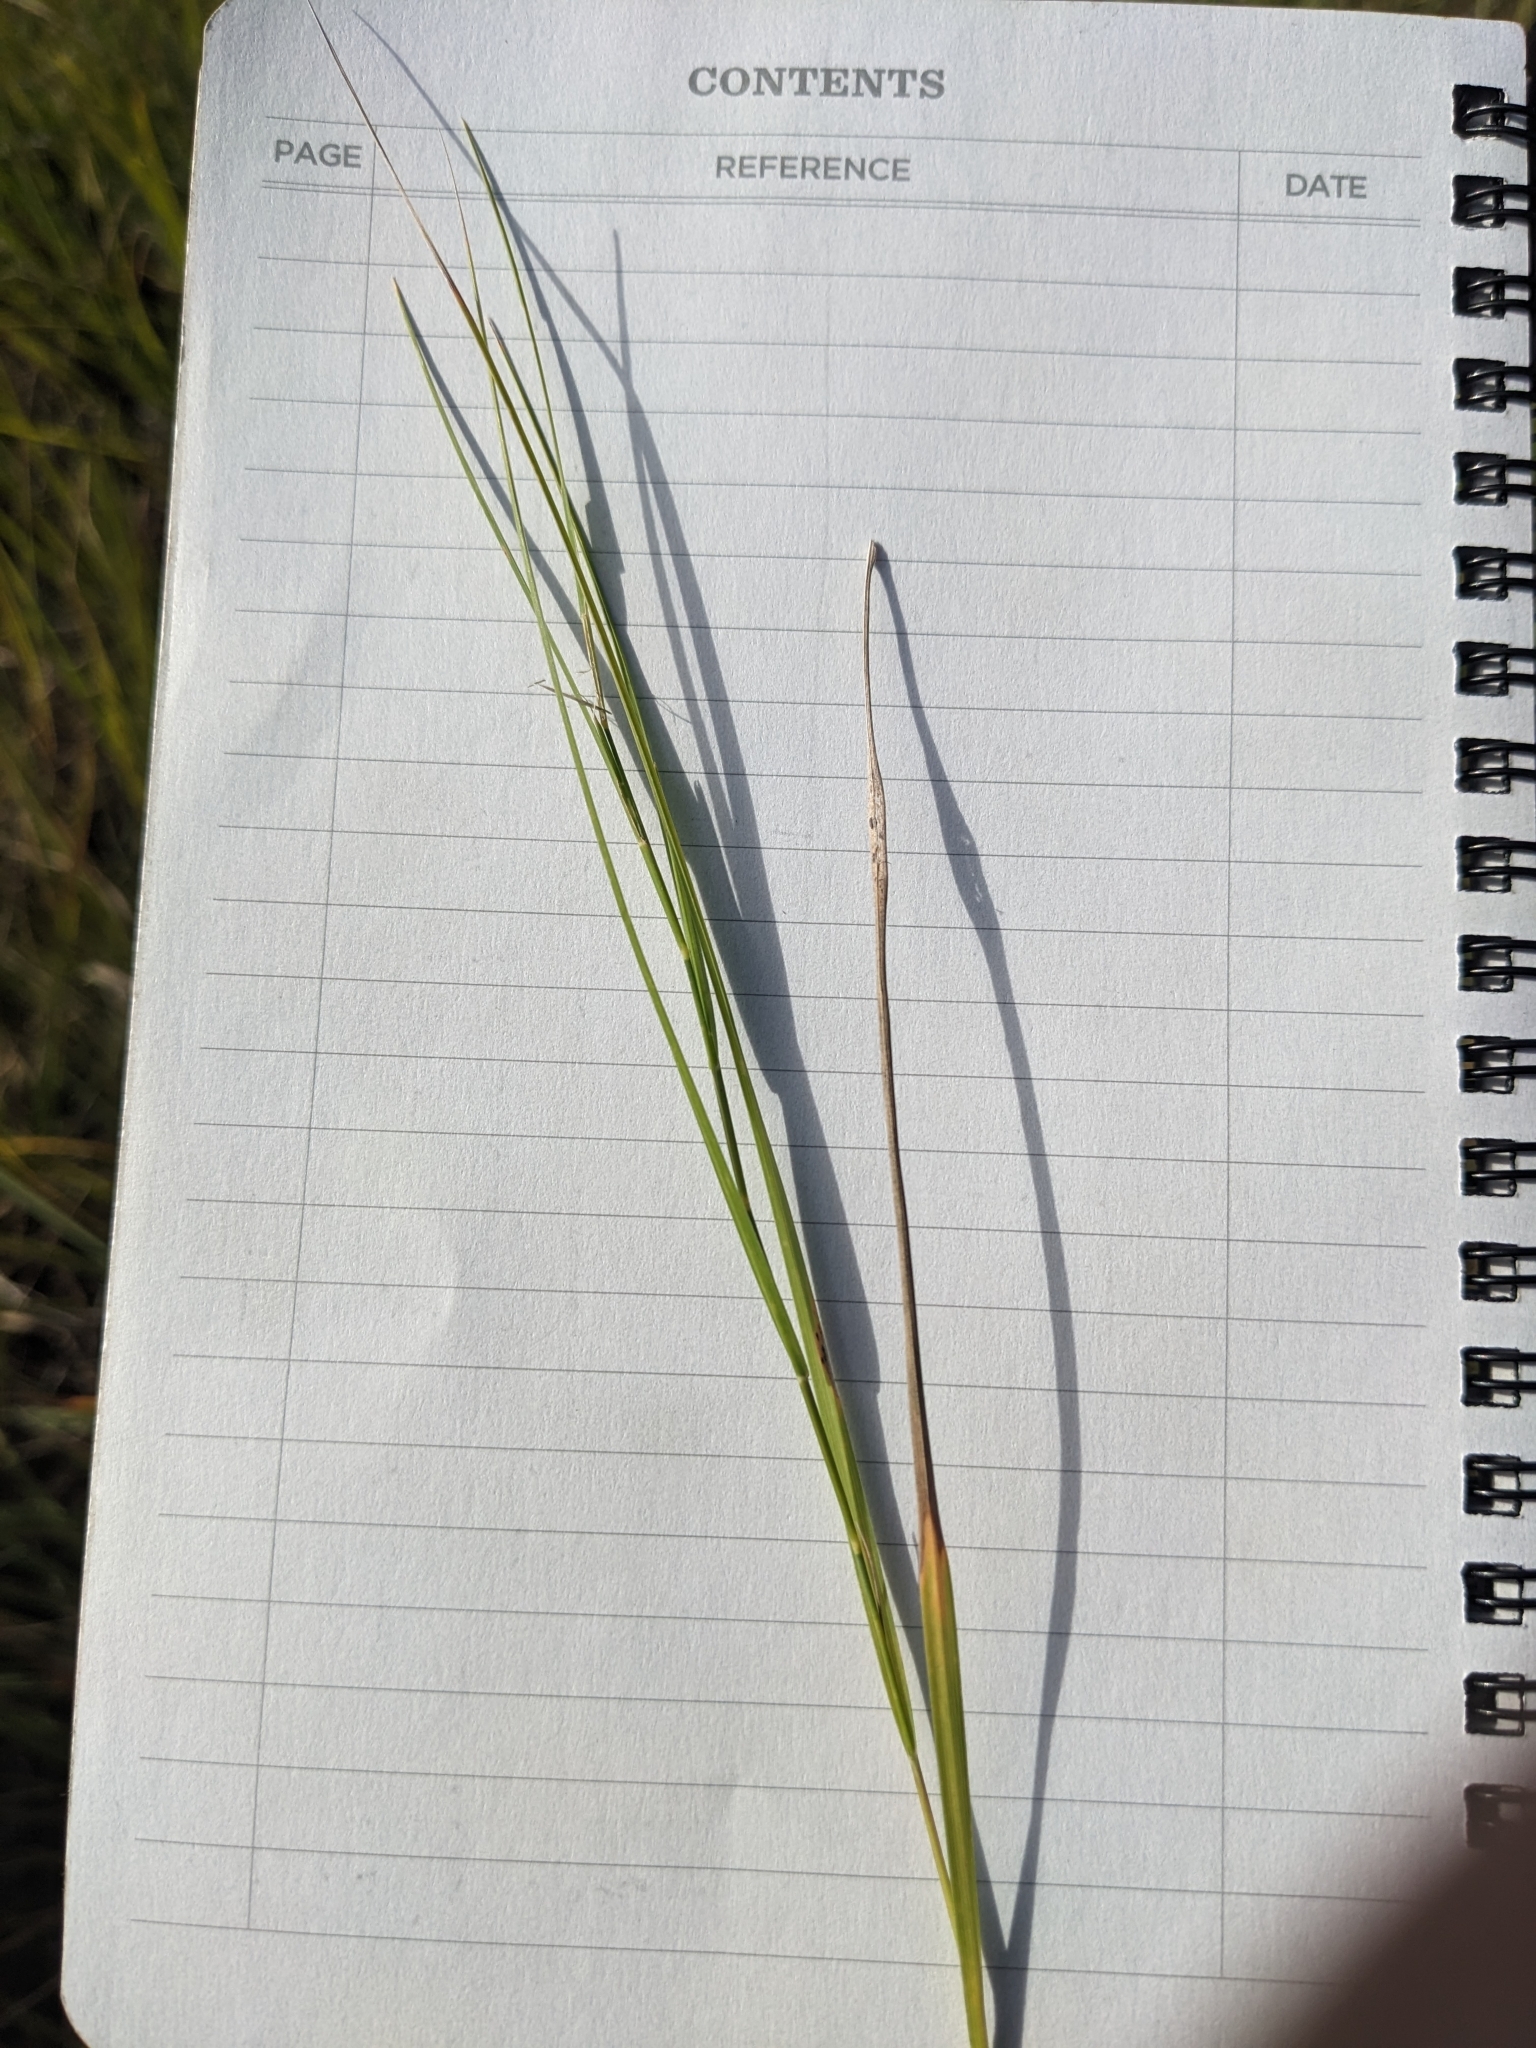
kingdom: Plantae
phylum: Tracheophyta
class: Liliopsida
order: Poales
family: Poaceae
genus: Muhlenbergia
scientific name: Muhlenbergia cuspidata
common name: Plains muhly
